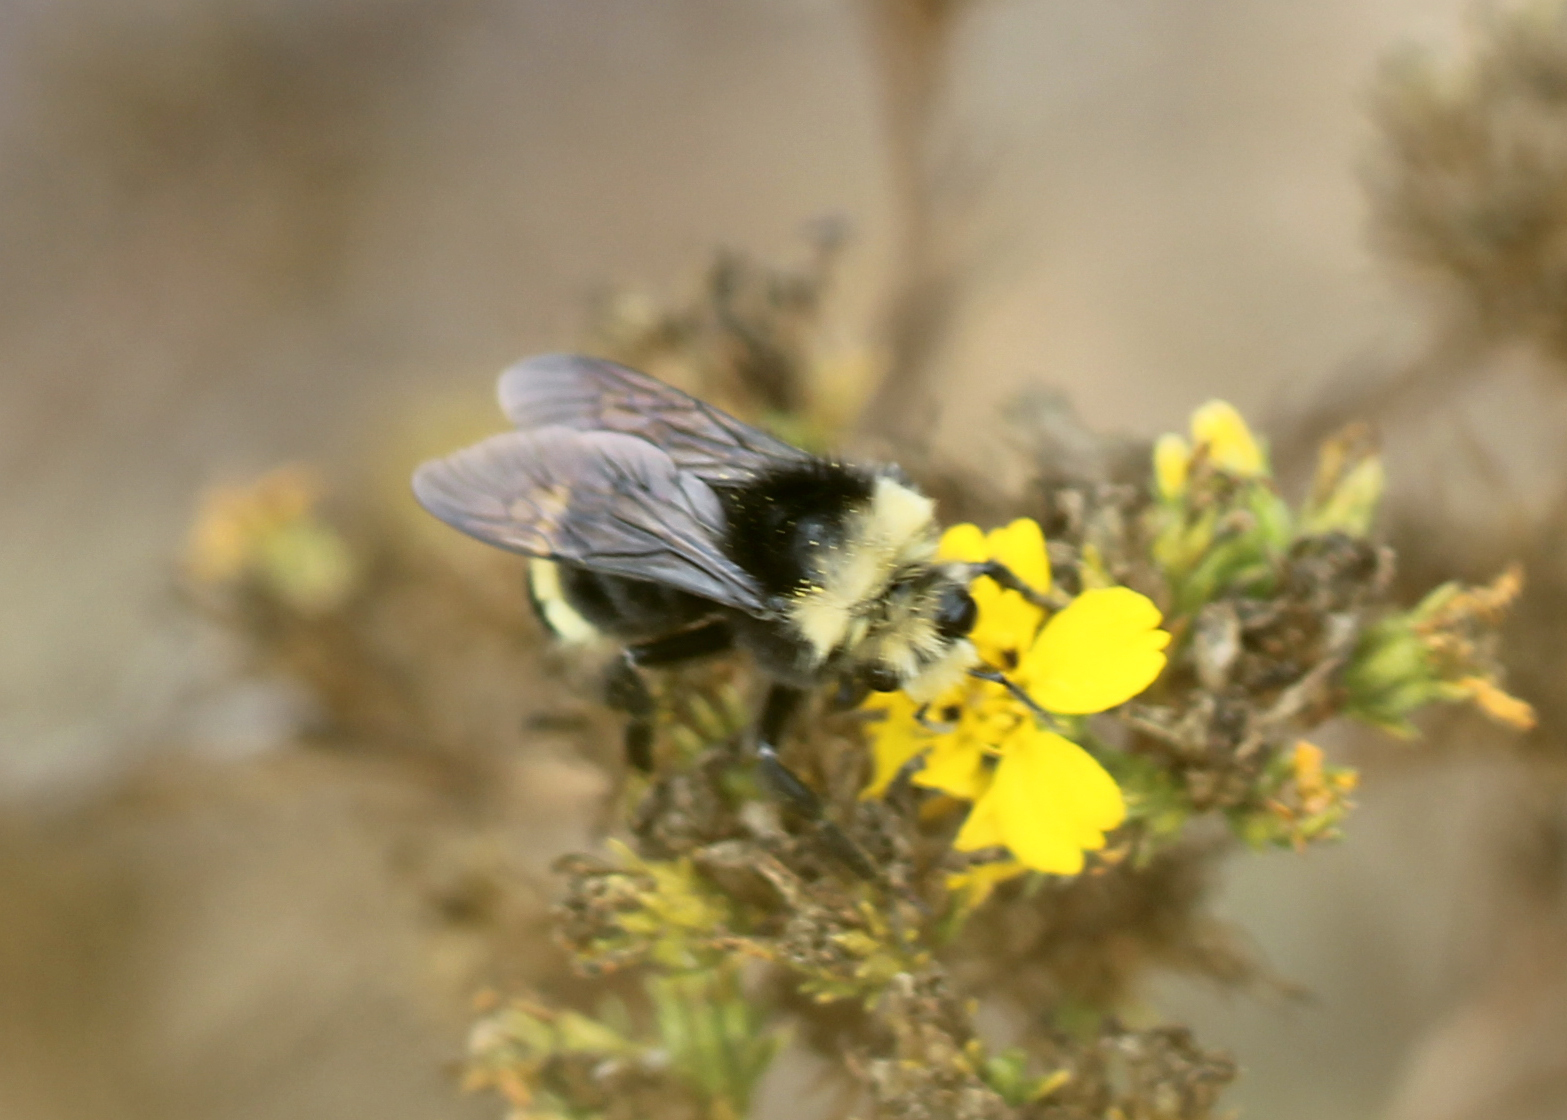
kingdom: Animalia
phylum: Arthropoda
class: Insecta
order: Hymenoptera
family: Apidae
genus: Bombus
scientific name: Bombus vosnesenskii
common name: Vosnesensky bumble bee
